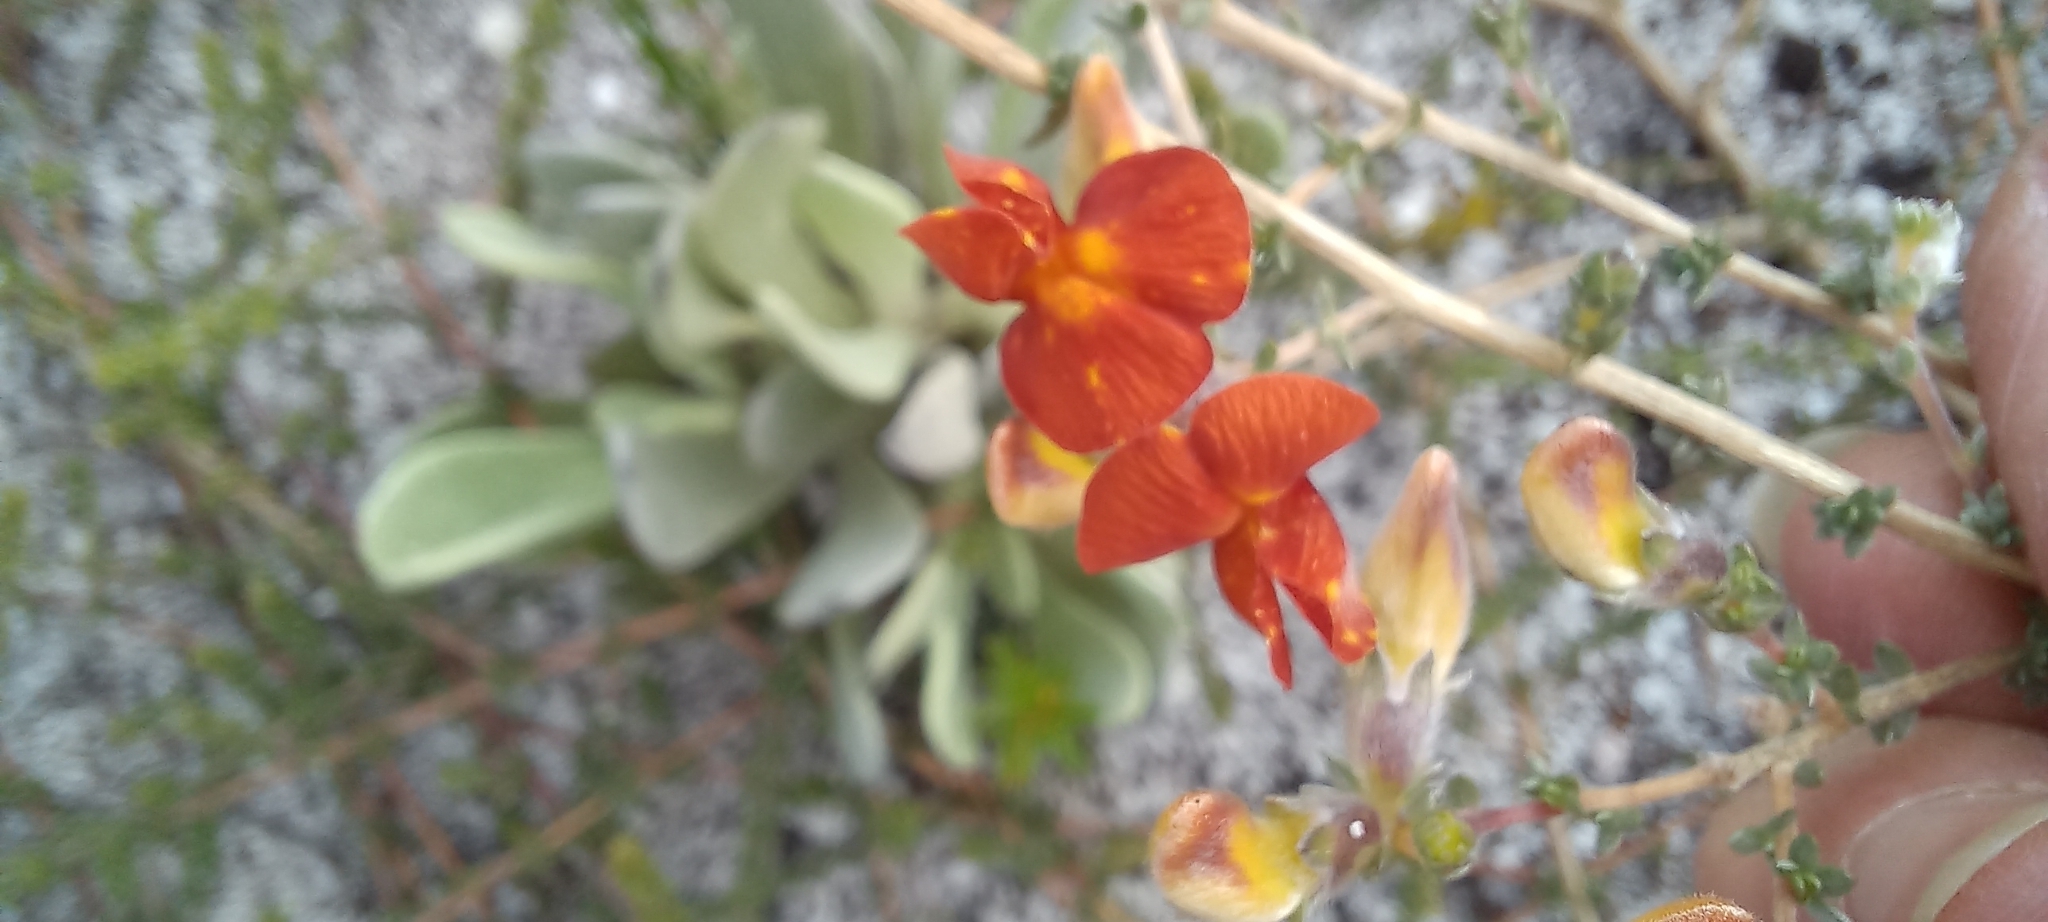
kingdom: Plantae
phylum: Tracheophyta
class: Magnoliopsida
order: Fabales
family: Fabaceae
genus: Aspalathus
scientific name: Aspalathus intervallaris
